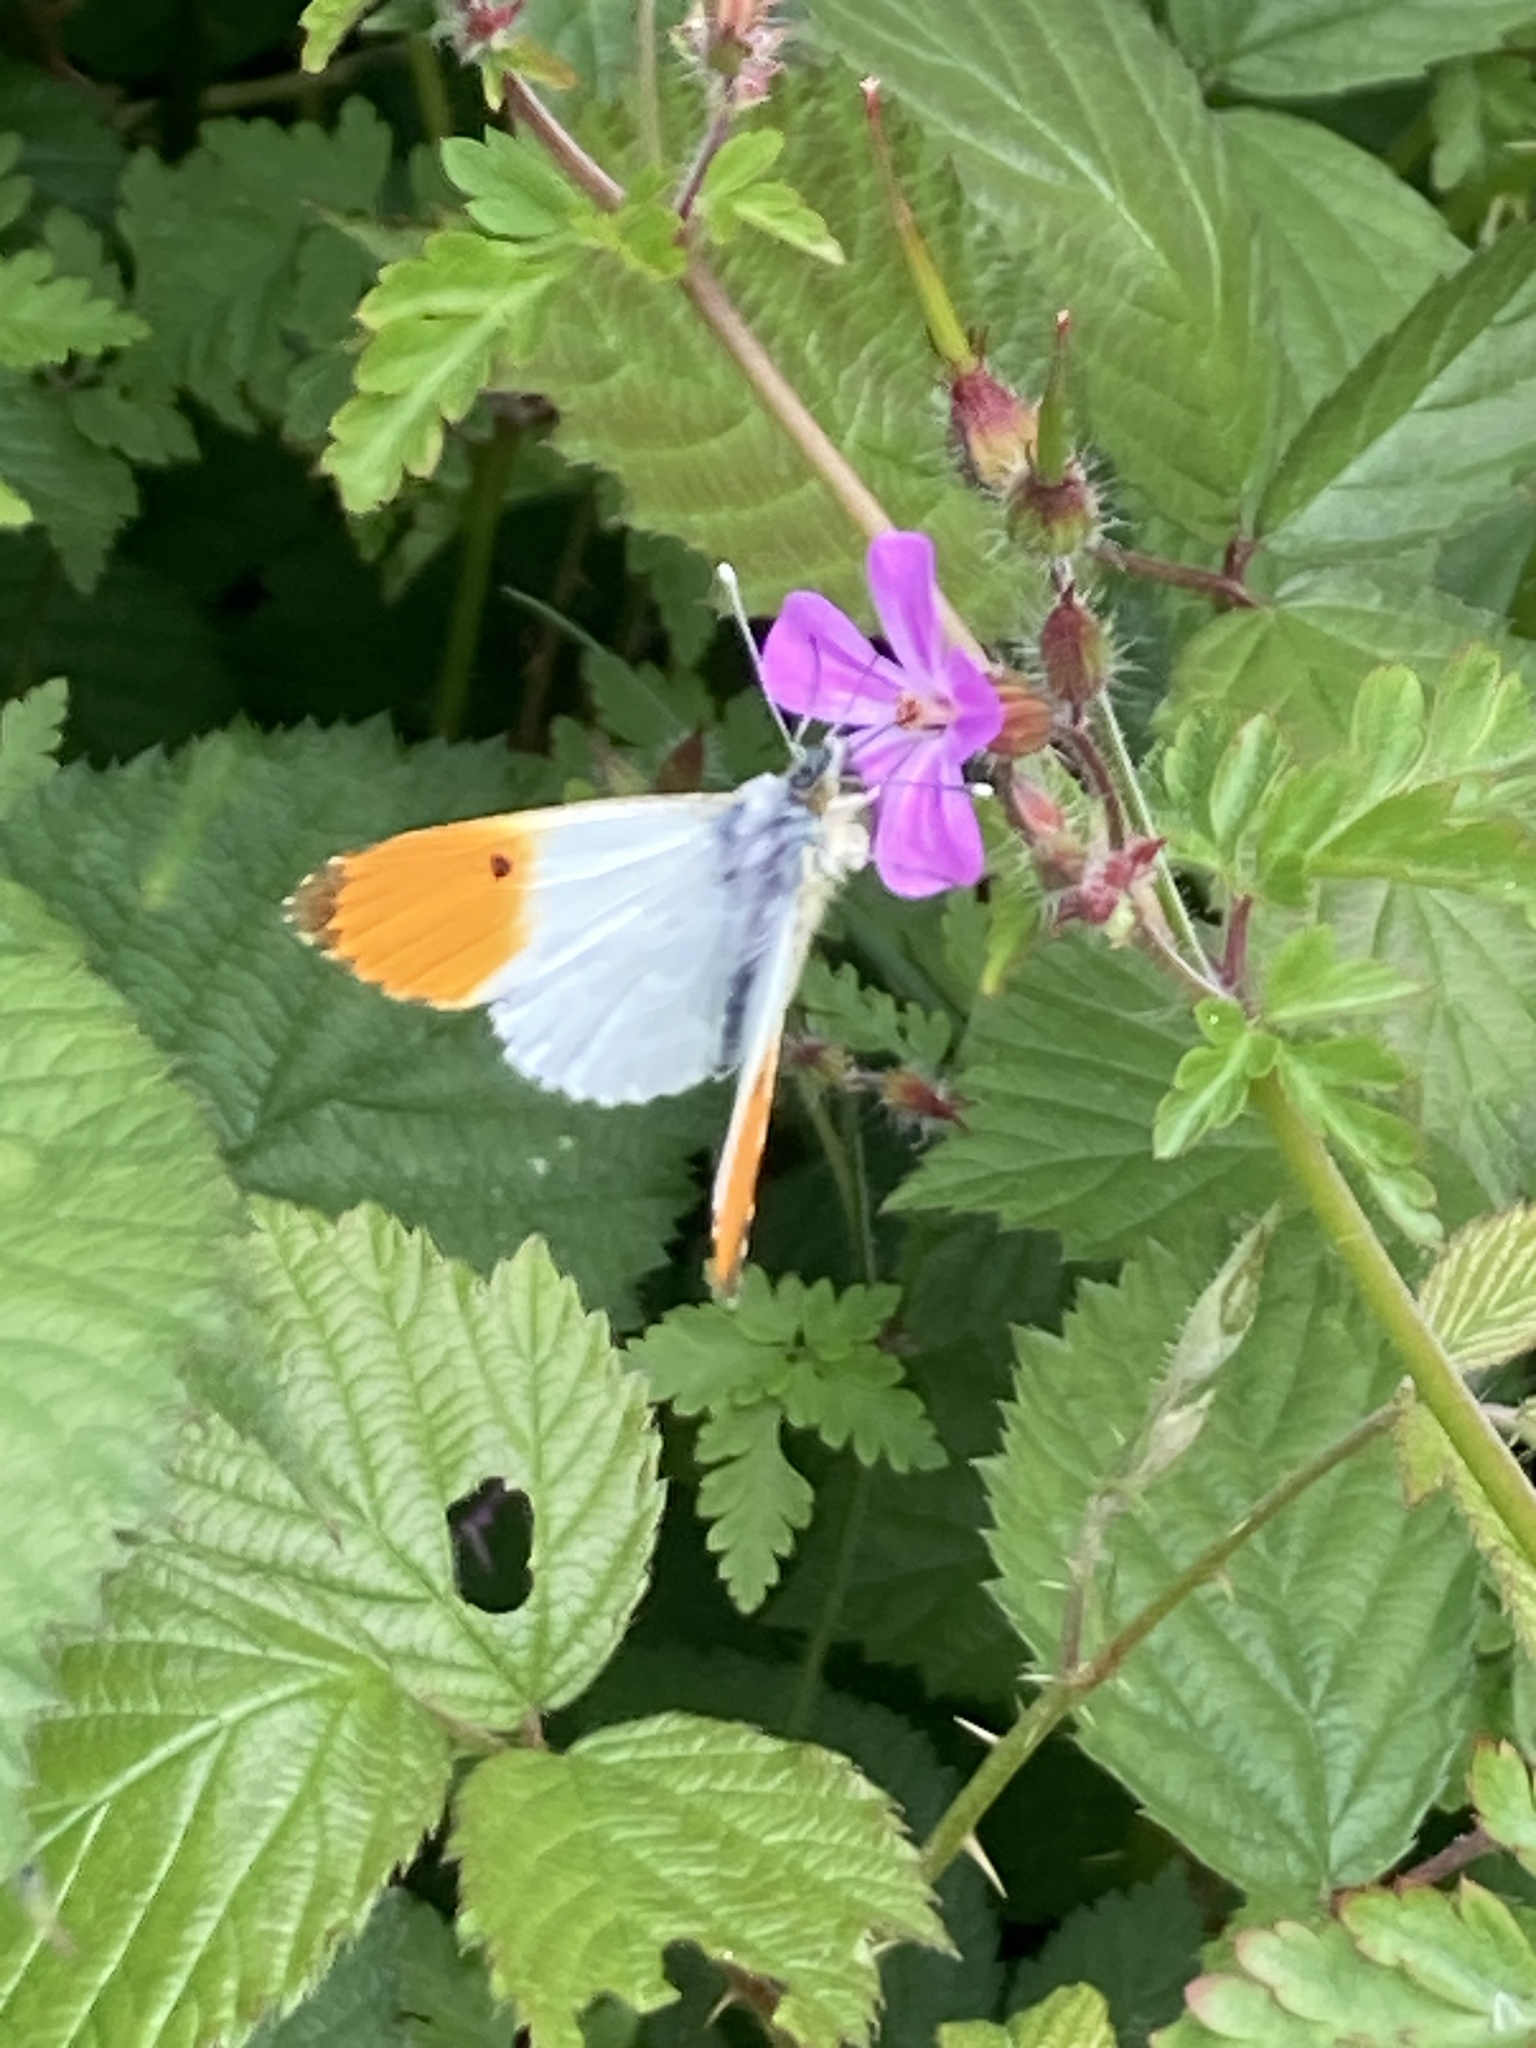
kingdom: Animalia
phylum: Arthropoda
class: Insecta
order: Lepidoptera
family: Pieridae
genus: Anthocharis
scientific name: Anthocharis cardamines
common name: Orange-tip
